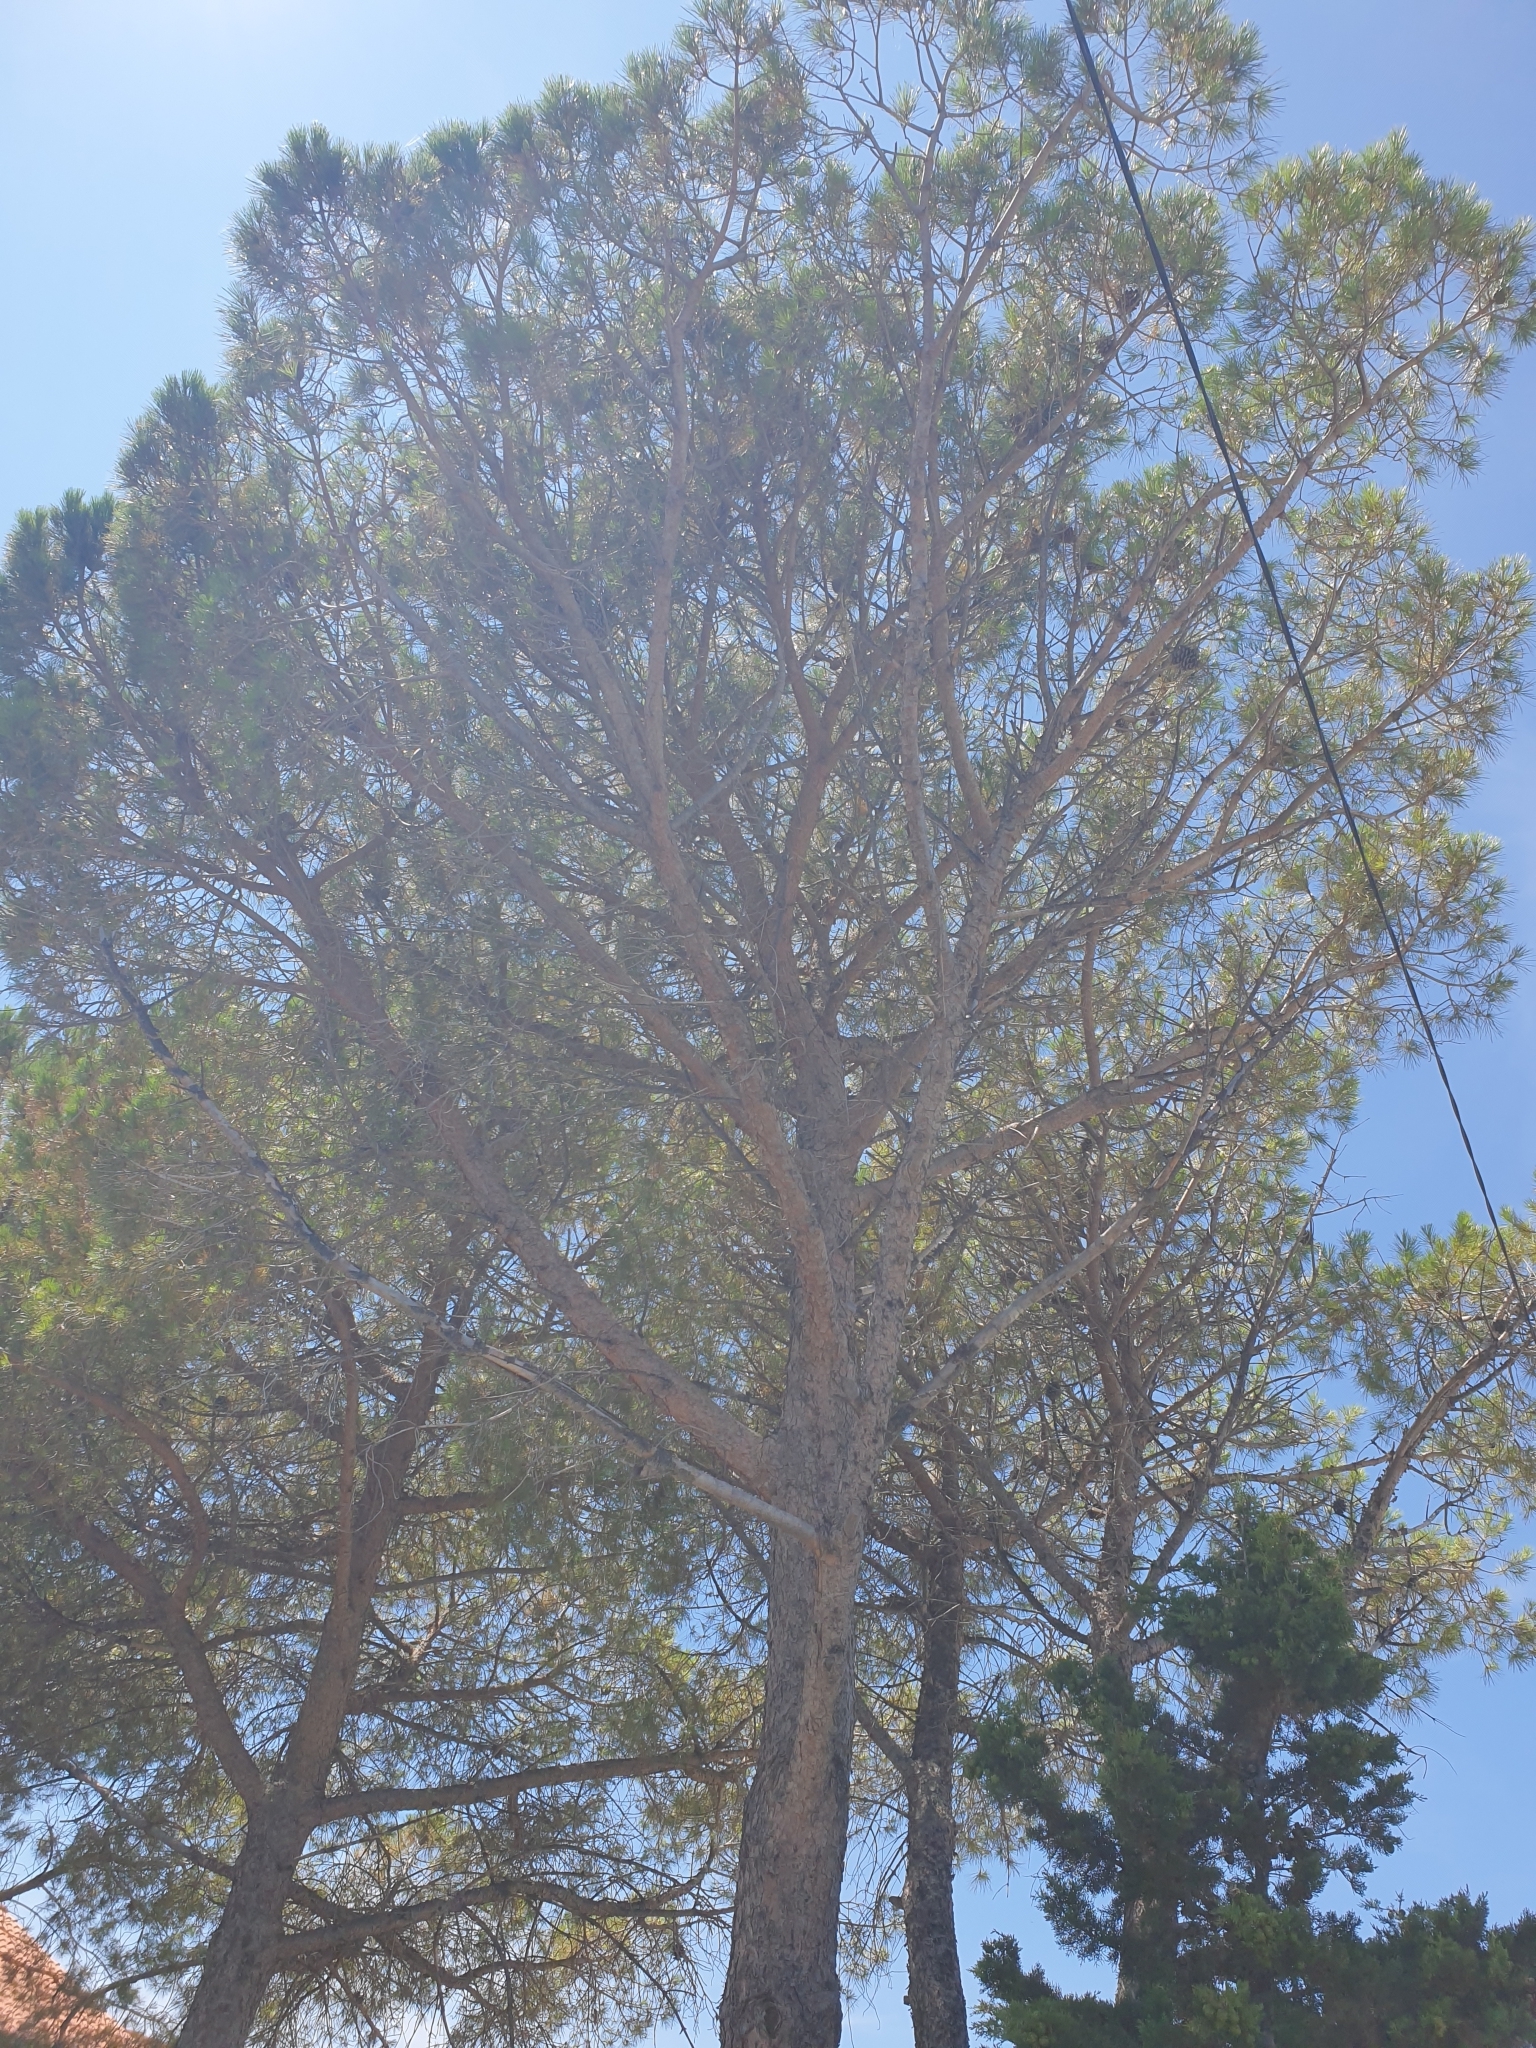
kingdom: Plantae
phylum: Tracheophyta
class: Pinopsida
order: Pinales
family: Pinaceae
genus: Pinus
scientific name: Pinus halepensis
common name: Aleppo pine
